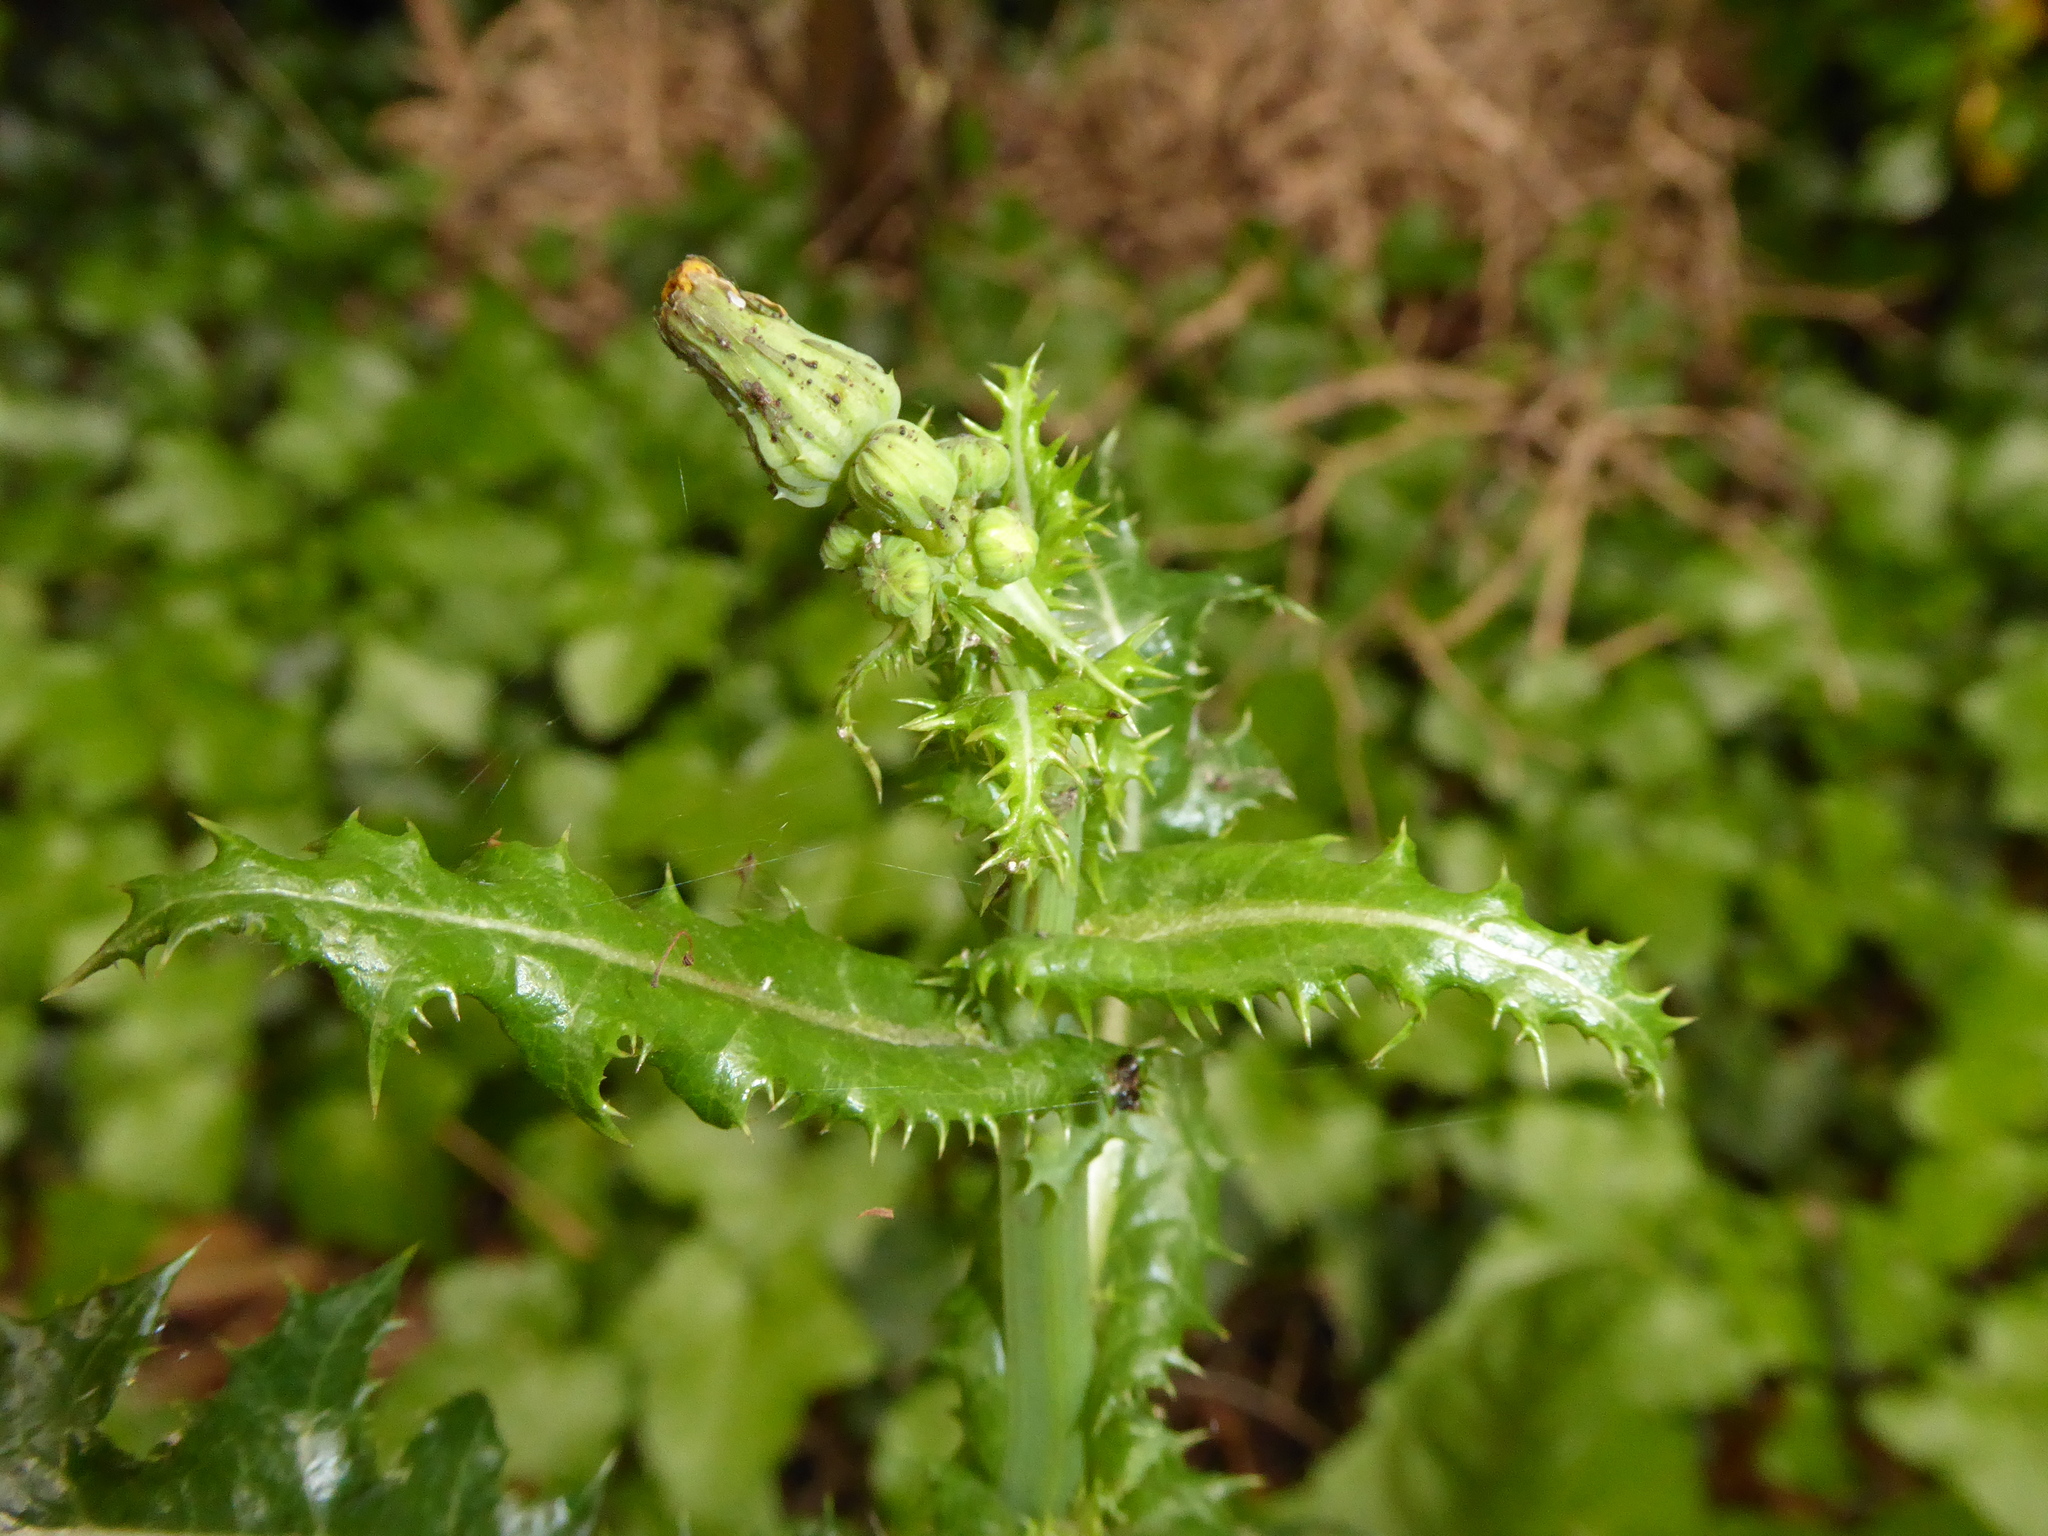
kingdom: Plantae
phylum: Tracheophyta
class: Magnoliopsida
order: Asterales
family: Asteraceae
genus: Sonchus
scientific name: Sonchus asper
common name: Prickly sow-thistle
